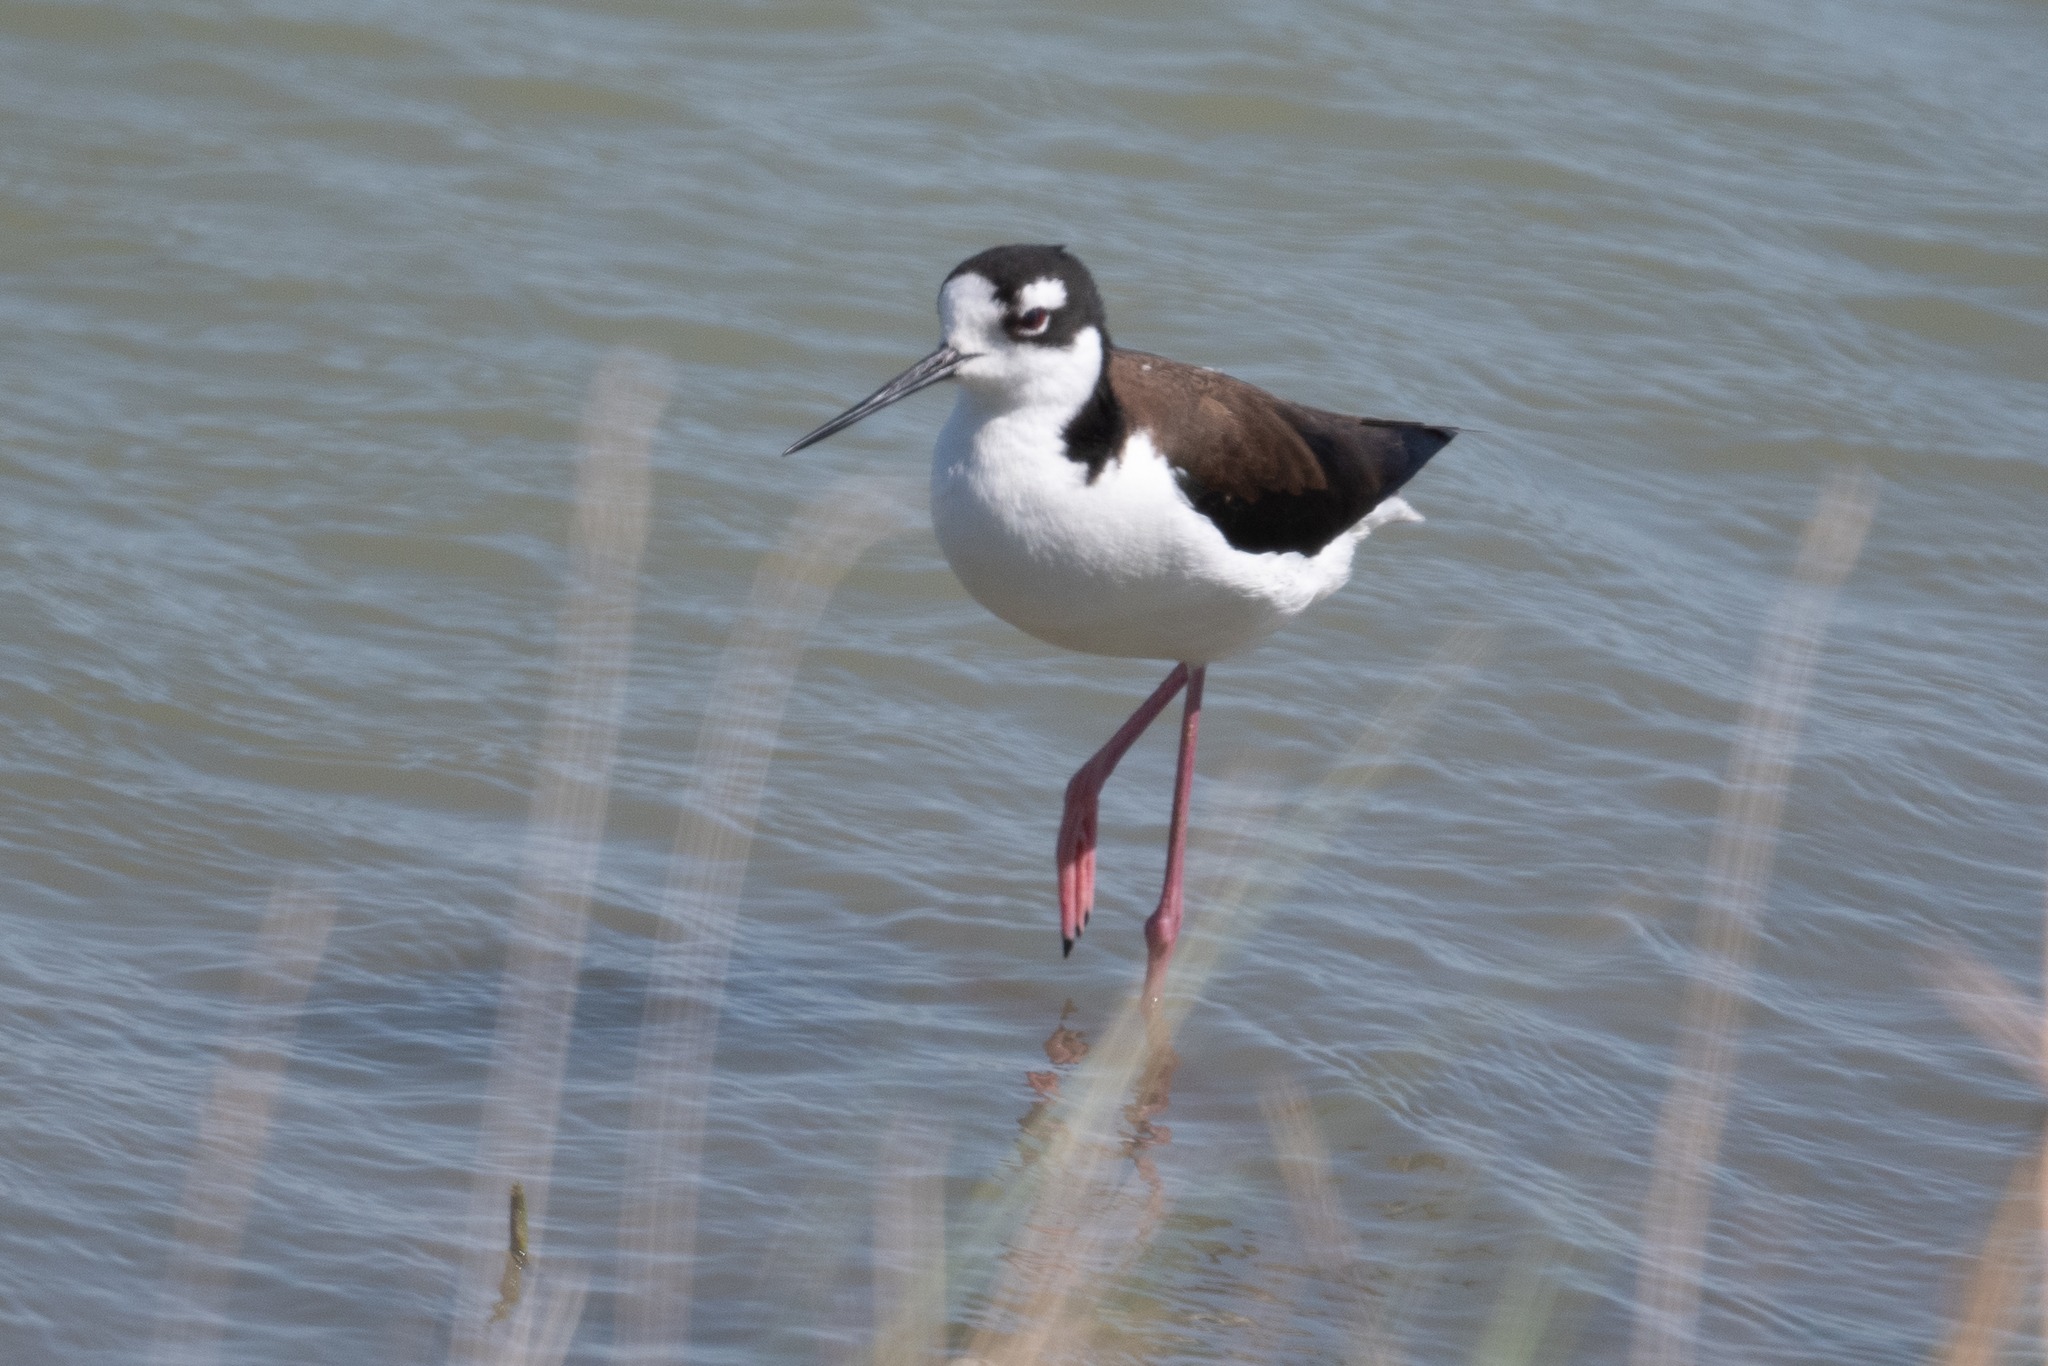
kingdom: Animalia
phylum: Chordata
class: Aves
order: Charadriiformes
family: Recurvirostridae
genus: Himantopus
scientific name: Himantopus mexicanus
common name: Black-necked stilt
